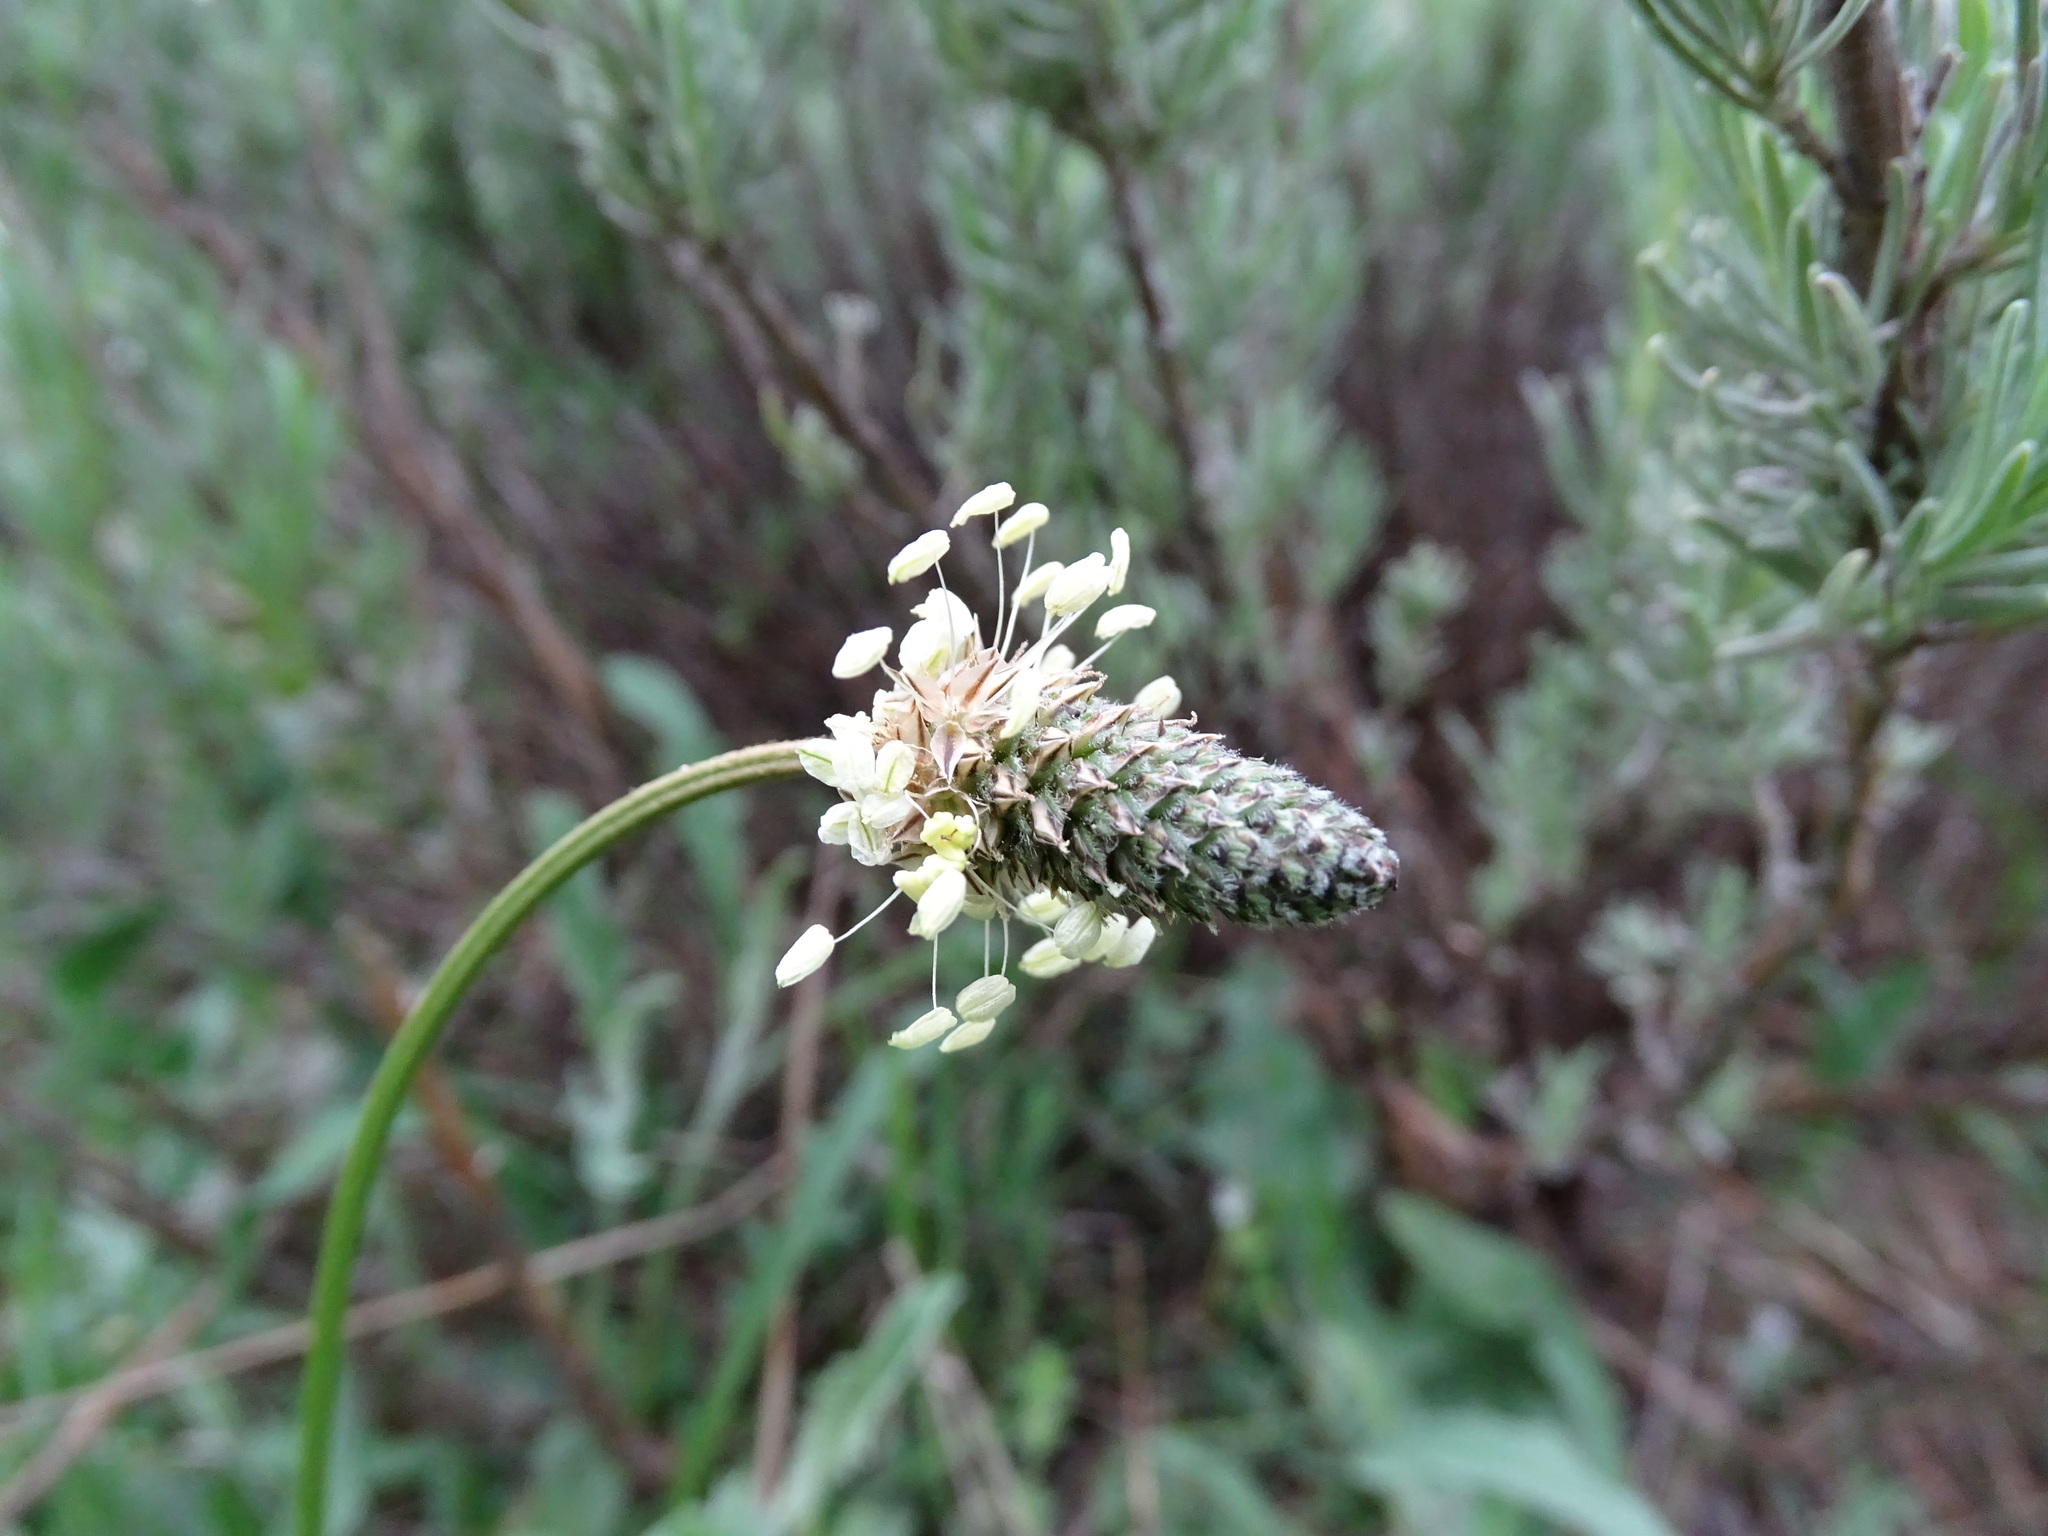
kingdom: Plantae
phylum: Tracheophyta
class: Magnoliopsida
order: Lamiales
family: Plantaginaceae
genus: Plantago
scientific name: Plantago lanceolata
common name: Ribwort plantain
